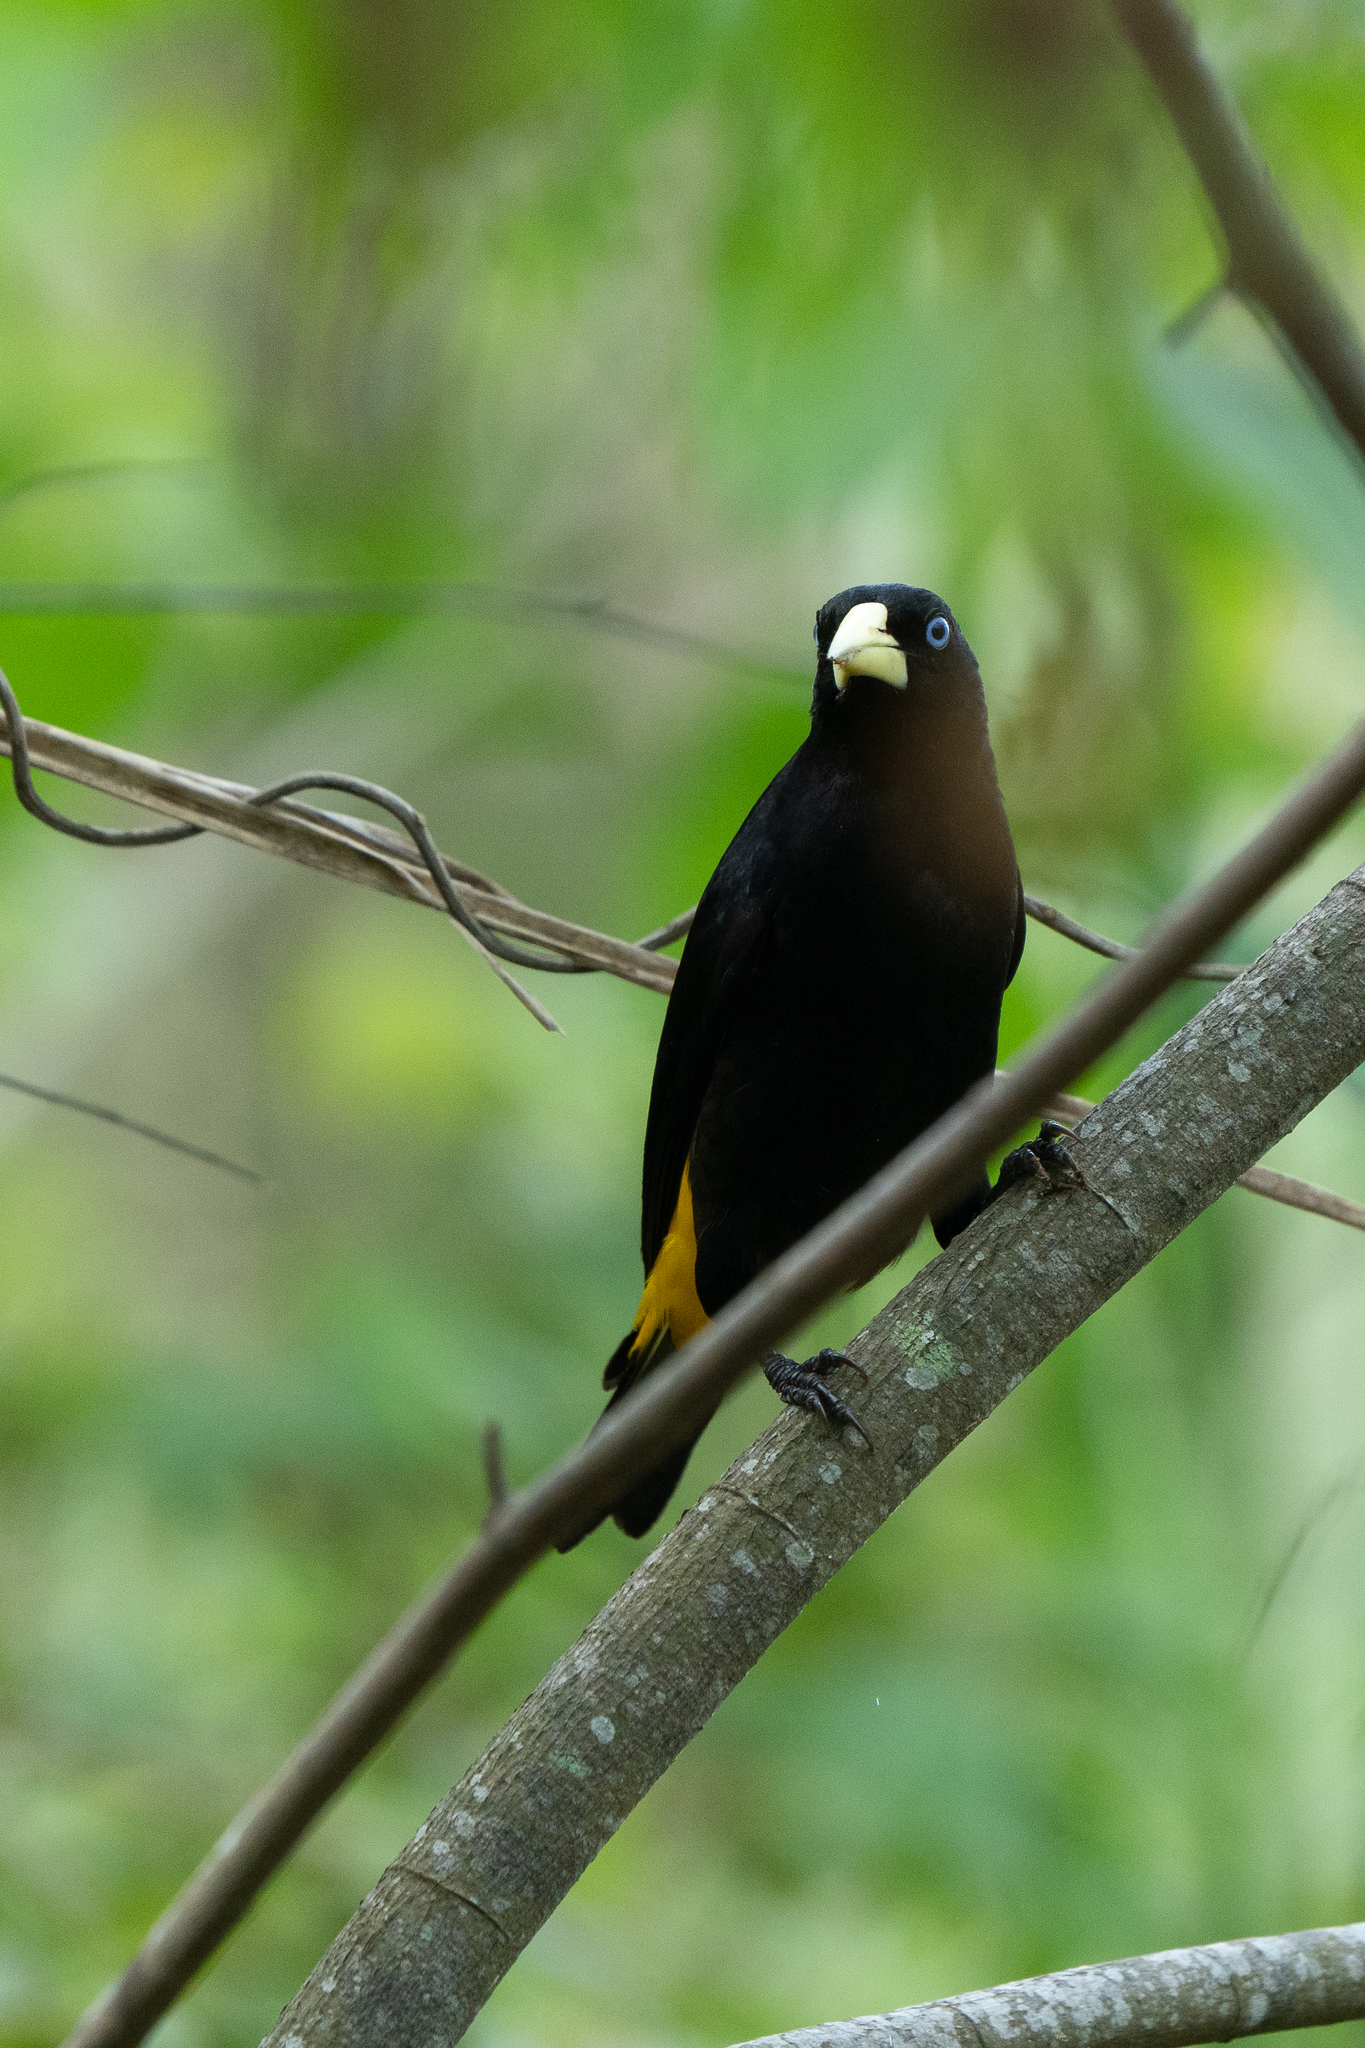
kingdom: Animalia
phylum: Chordata
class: Aves
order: Passeriformes
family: Icteridae
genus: Cacicus
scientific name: Cacicus cela
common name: Yellow-rumped cacique
